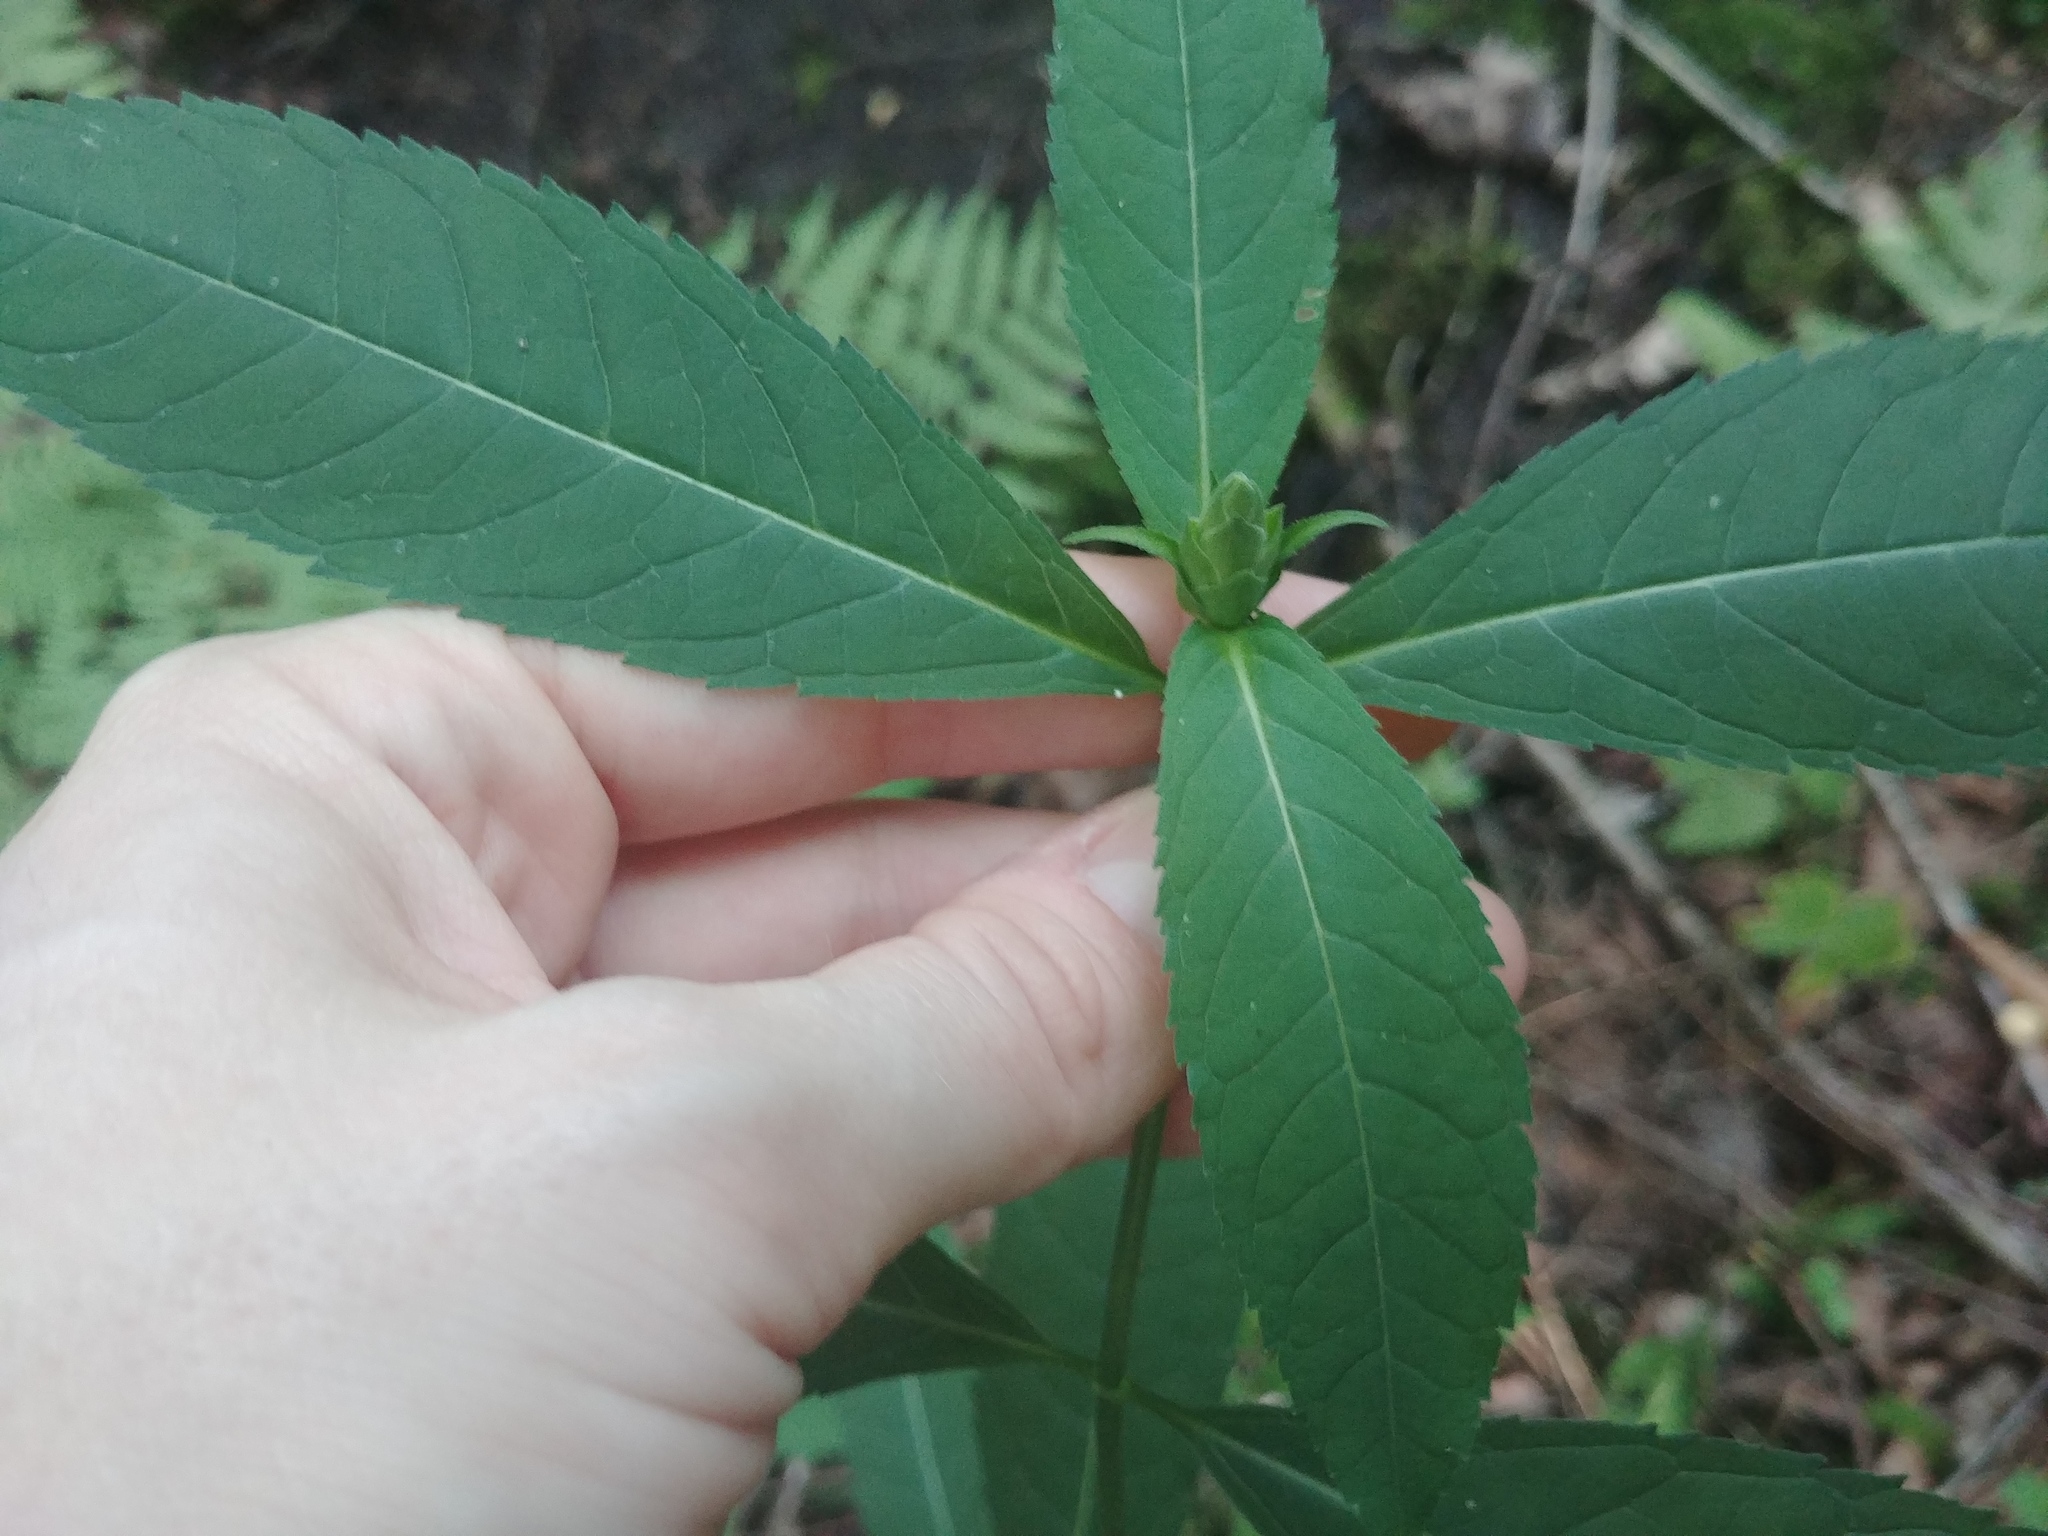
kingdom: Plantae
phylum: Tracheophyta
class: Magnoliopsida
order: Lamiales
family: Plantaginaceae
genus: Chelone
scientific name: Chelone glabra
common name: Snakehead
